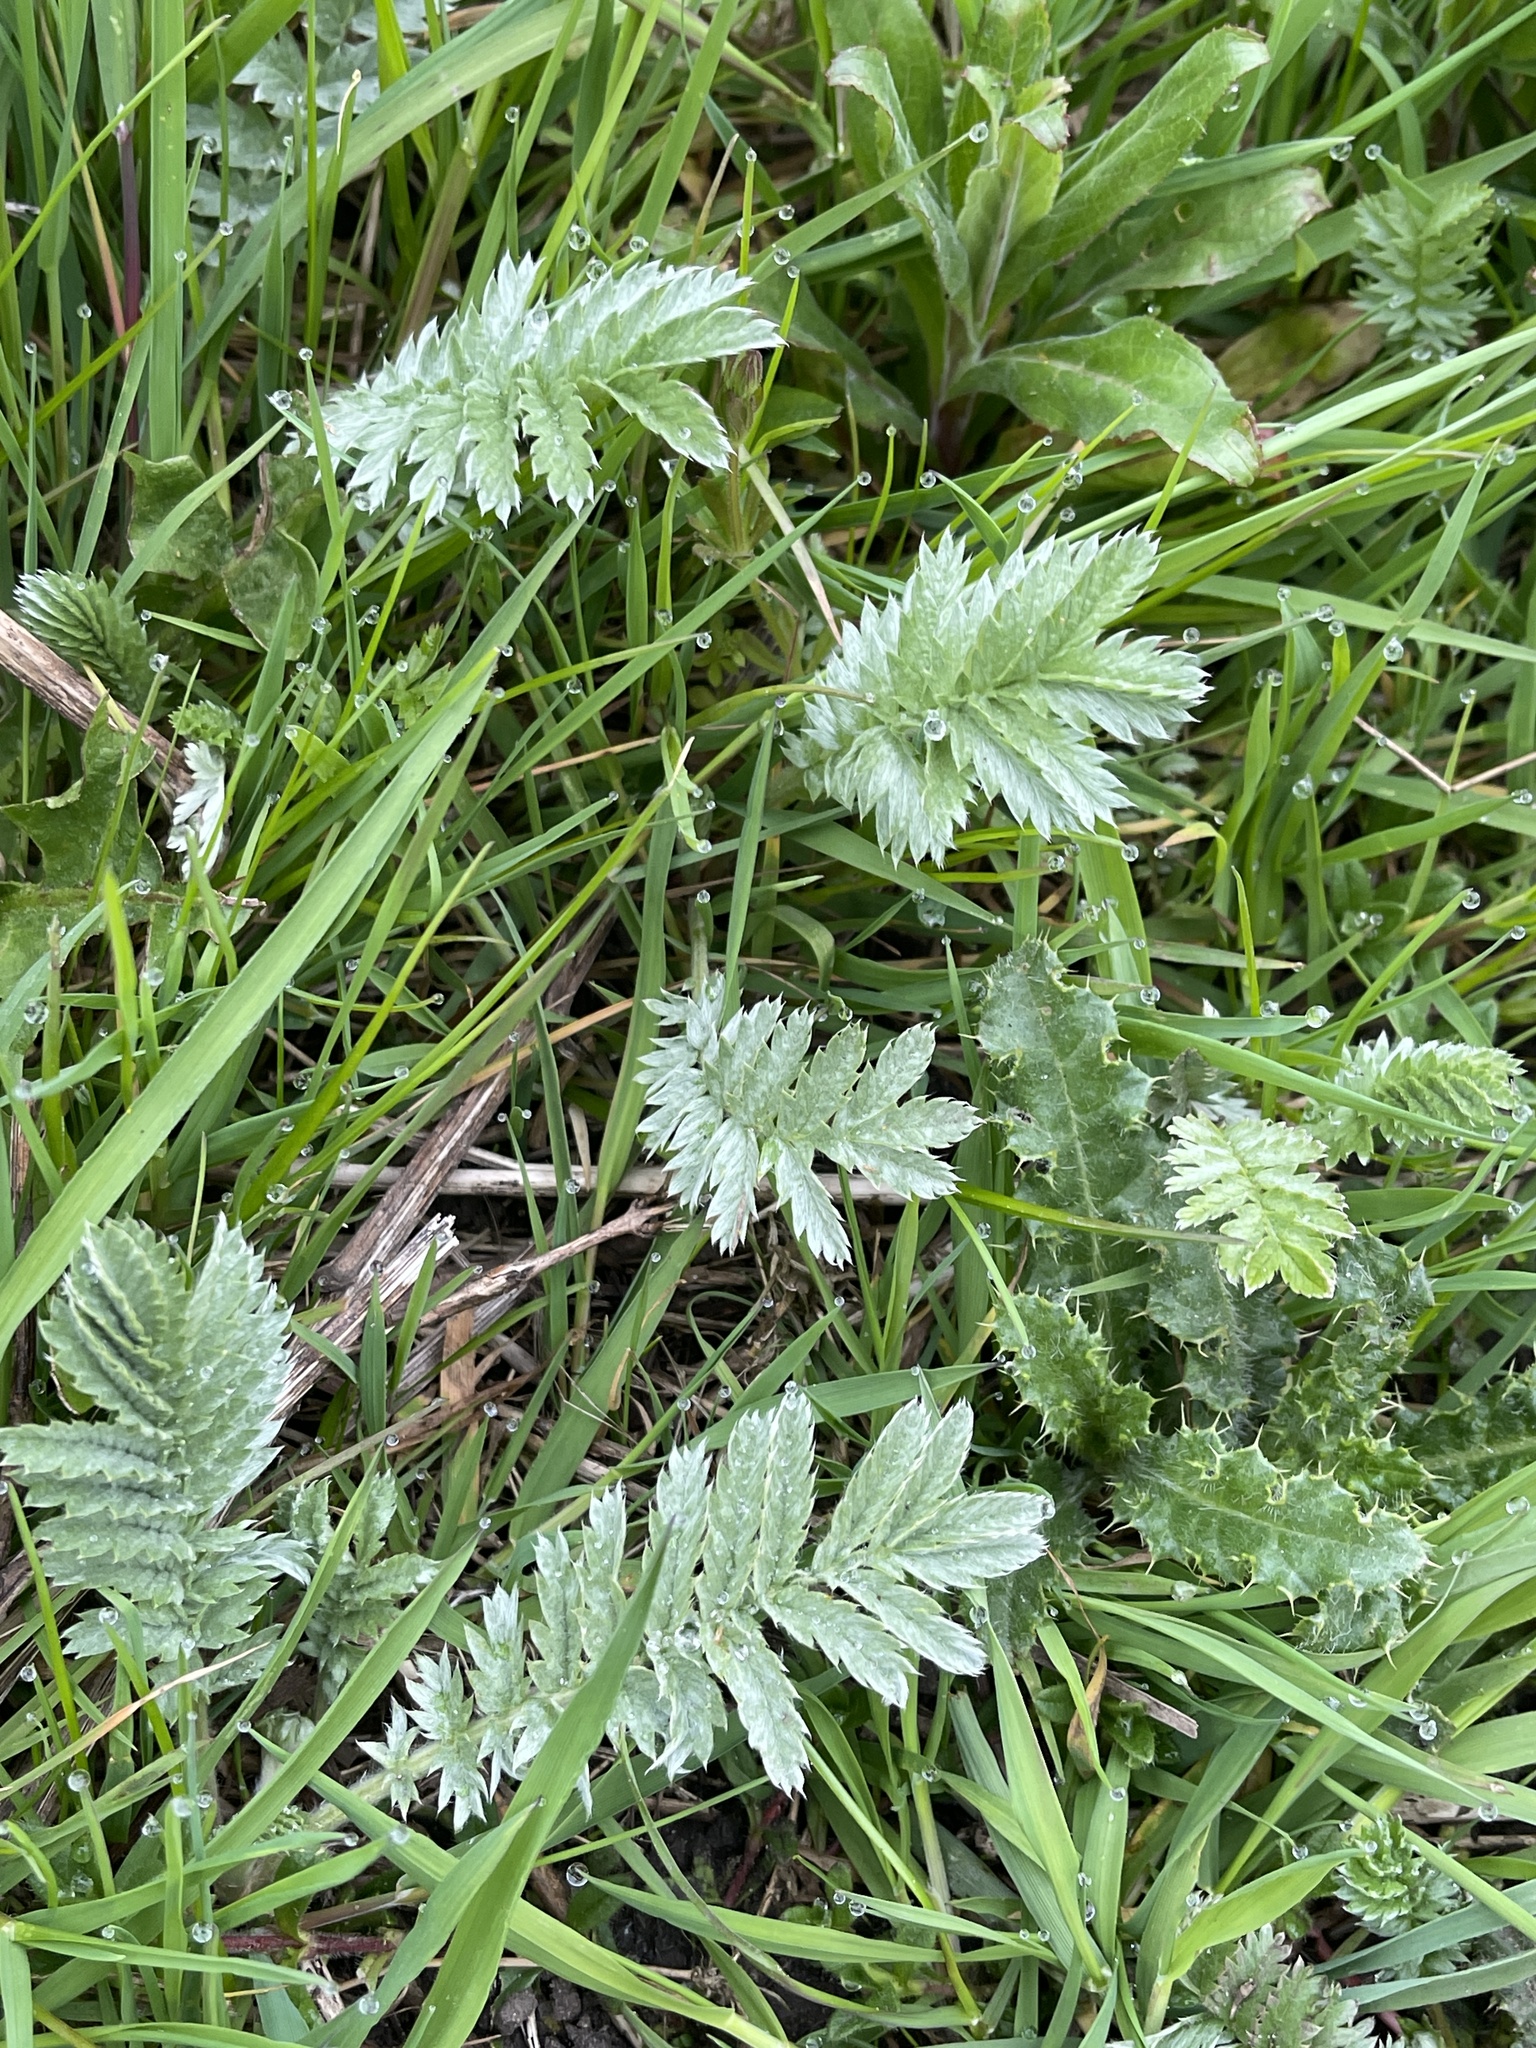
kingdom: Plantae
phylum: Tracheophyta
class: Magnoliopsida
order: Rosales
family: Rosaceae
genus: Argentina
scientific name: Argentina anserina
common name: Common silverweed
